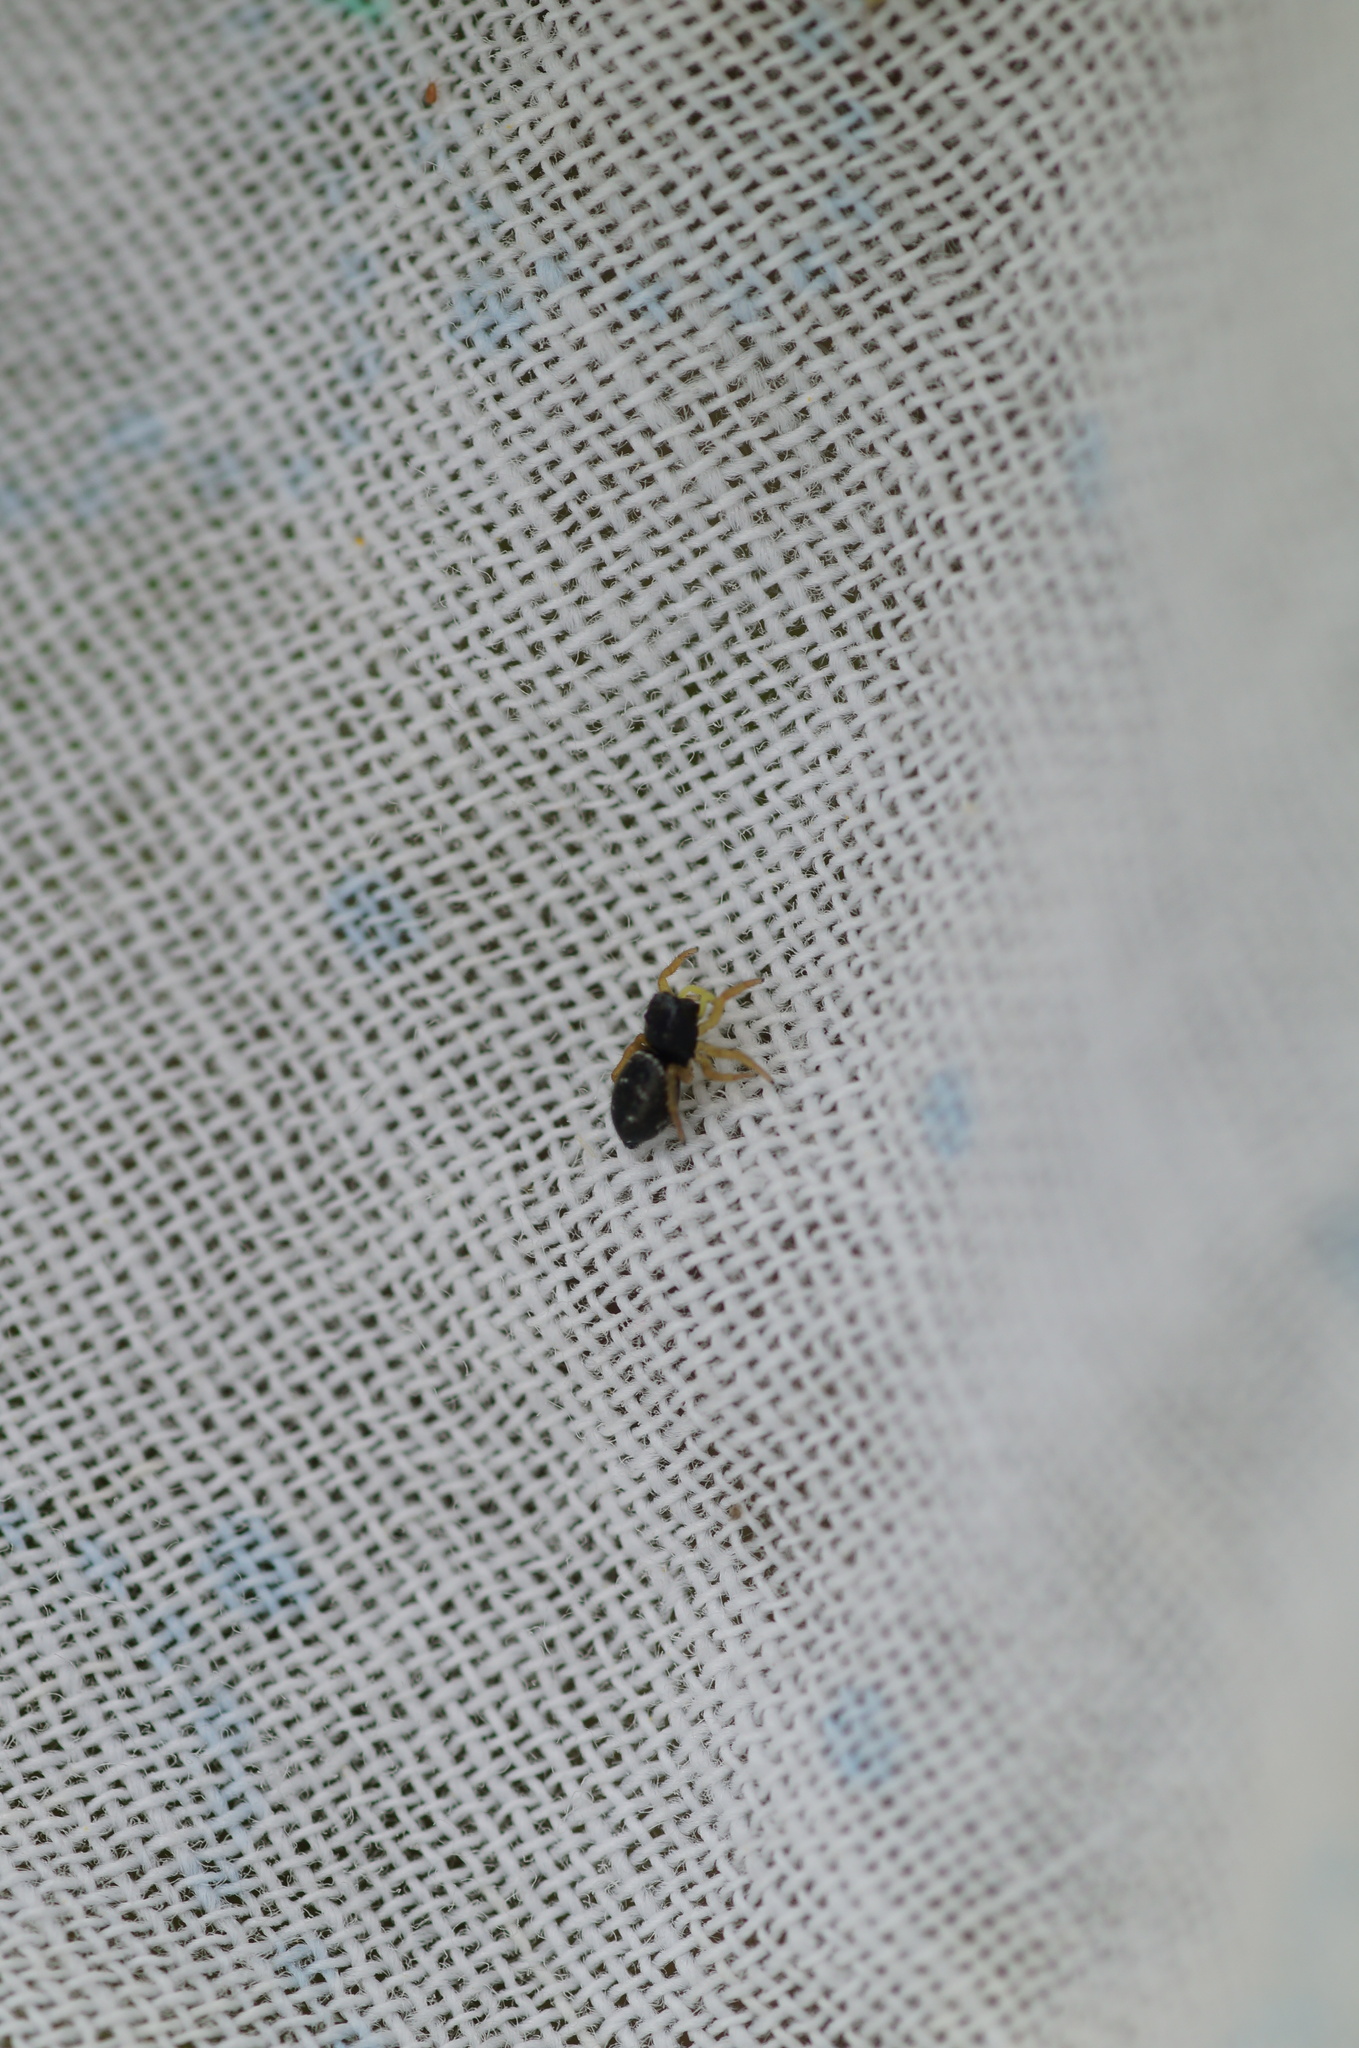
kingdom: Animalia
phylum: Arthropoda
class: Arachnida
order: Araneae
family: Salticidae
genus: Heliophanus
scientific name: Heliophanus
